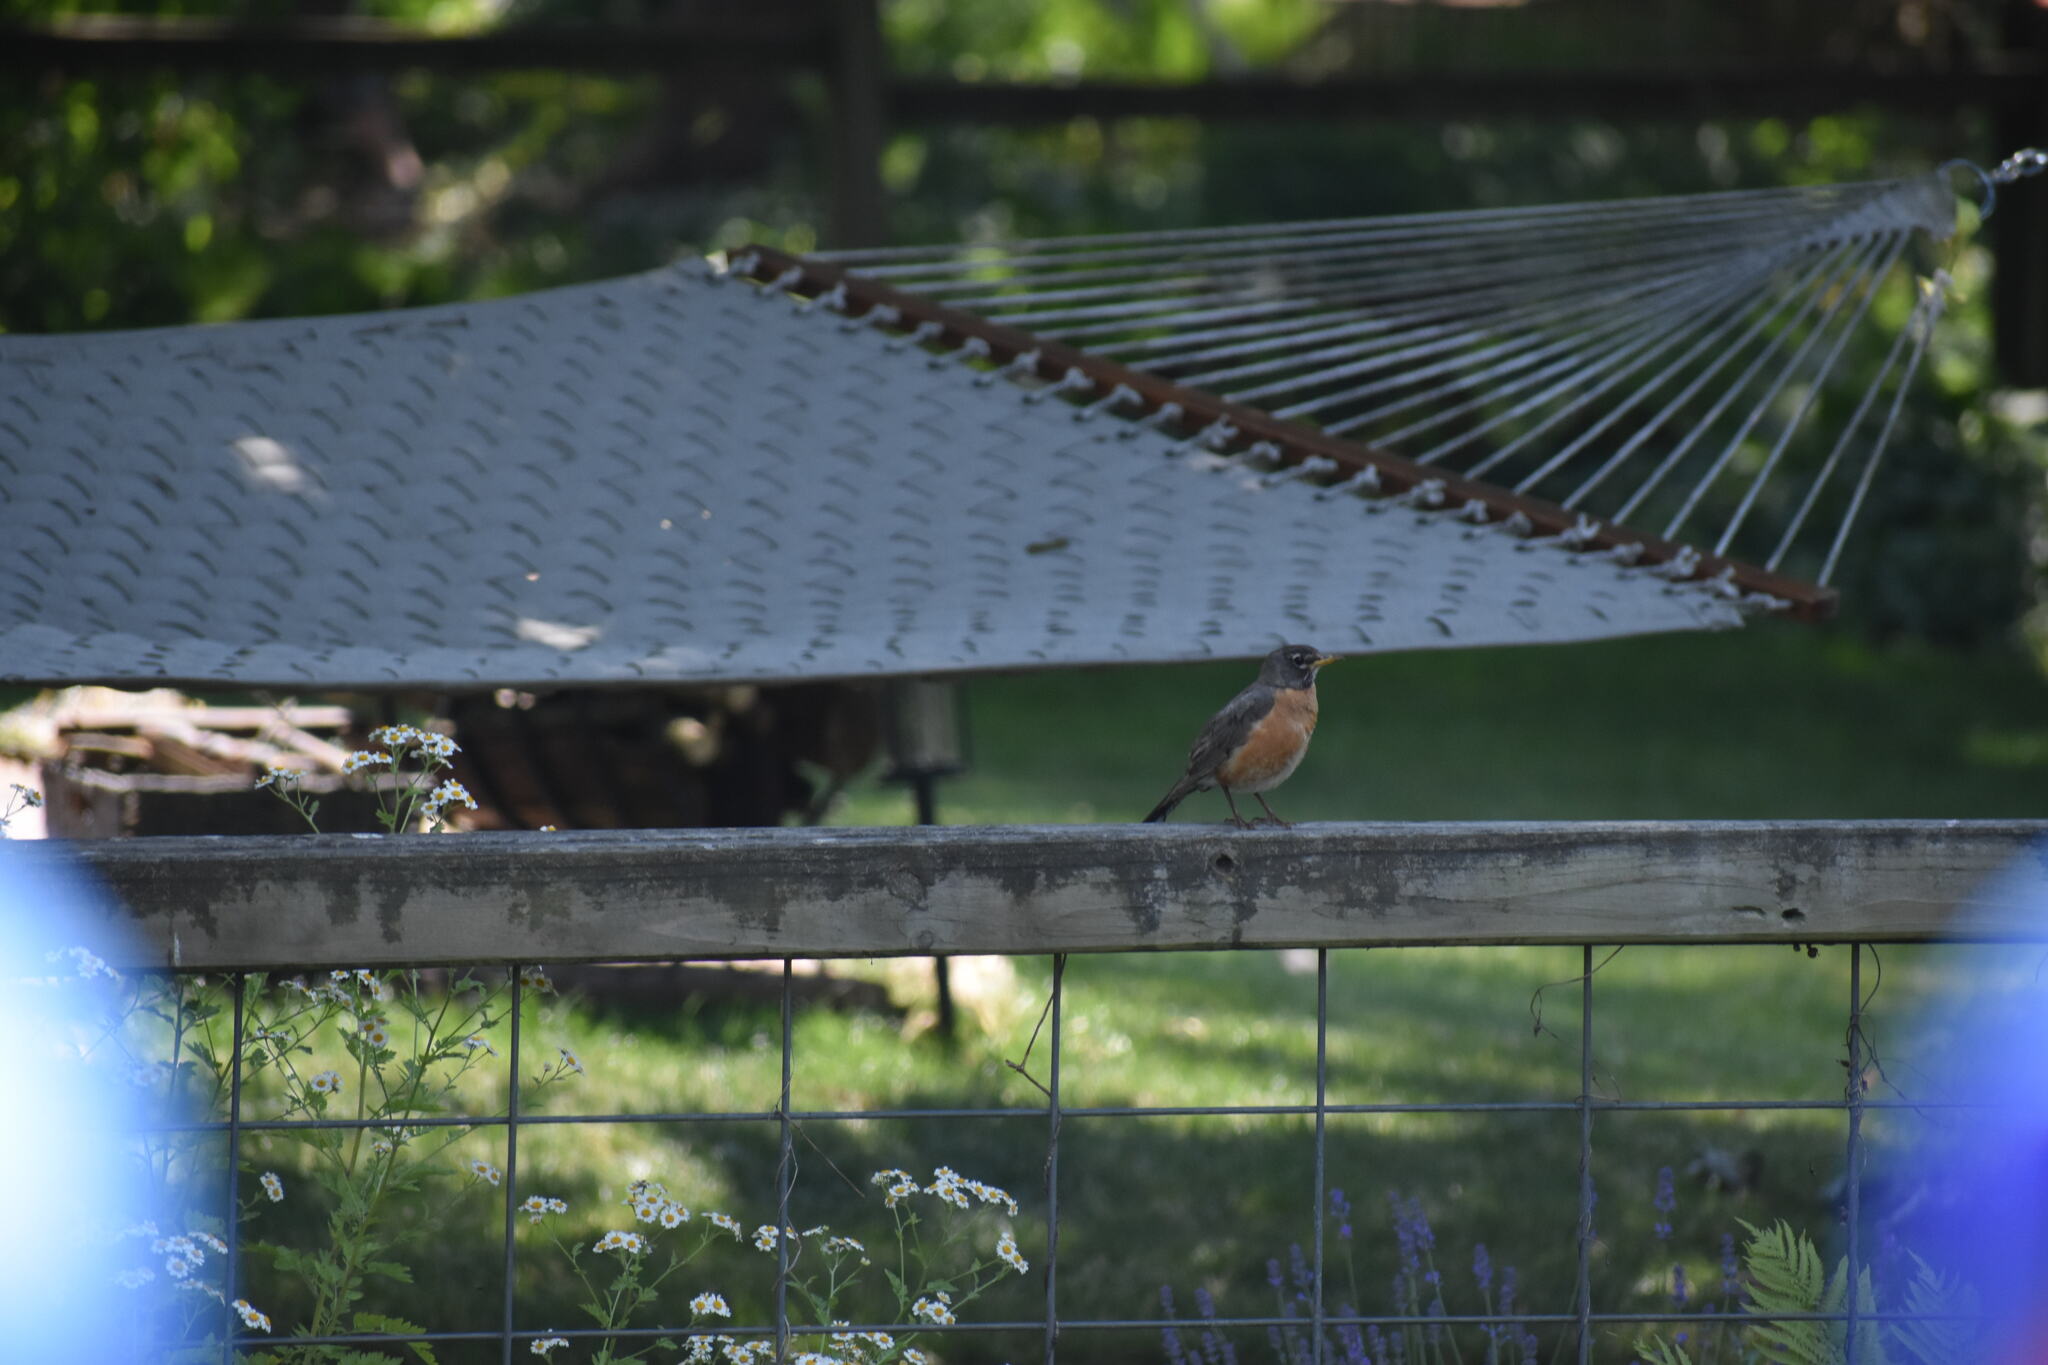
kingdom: Animalia
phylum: Chordata
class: Aves
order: Passeriformes
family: Turdidae
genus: Turdus
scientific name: Turdus migratorius
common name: American robin
